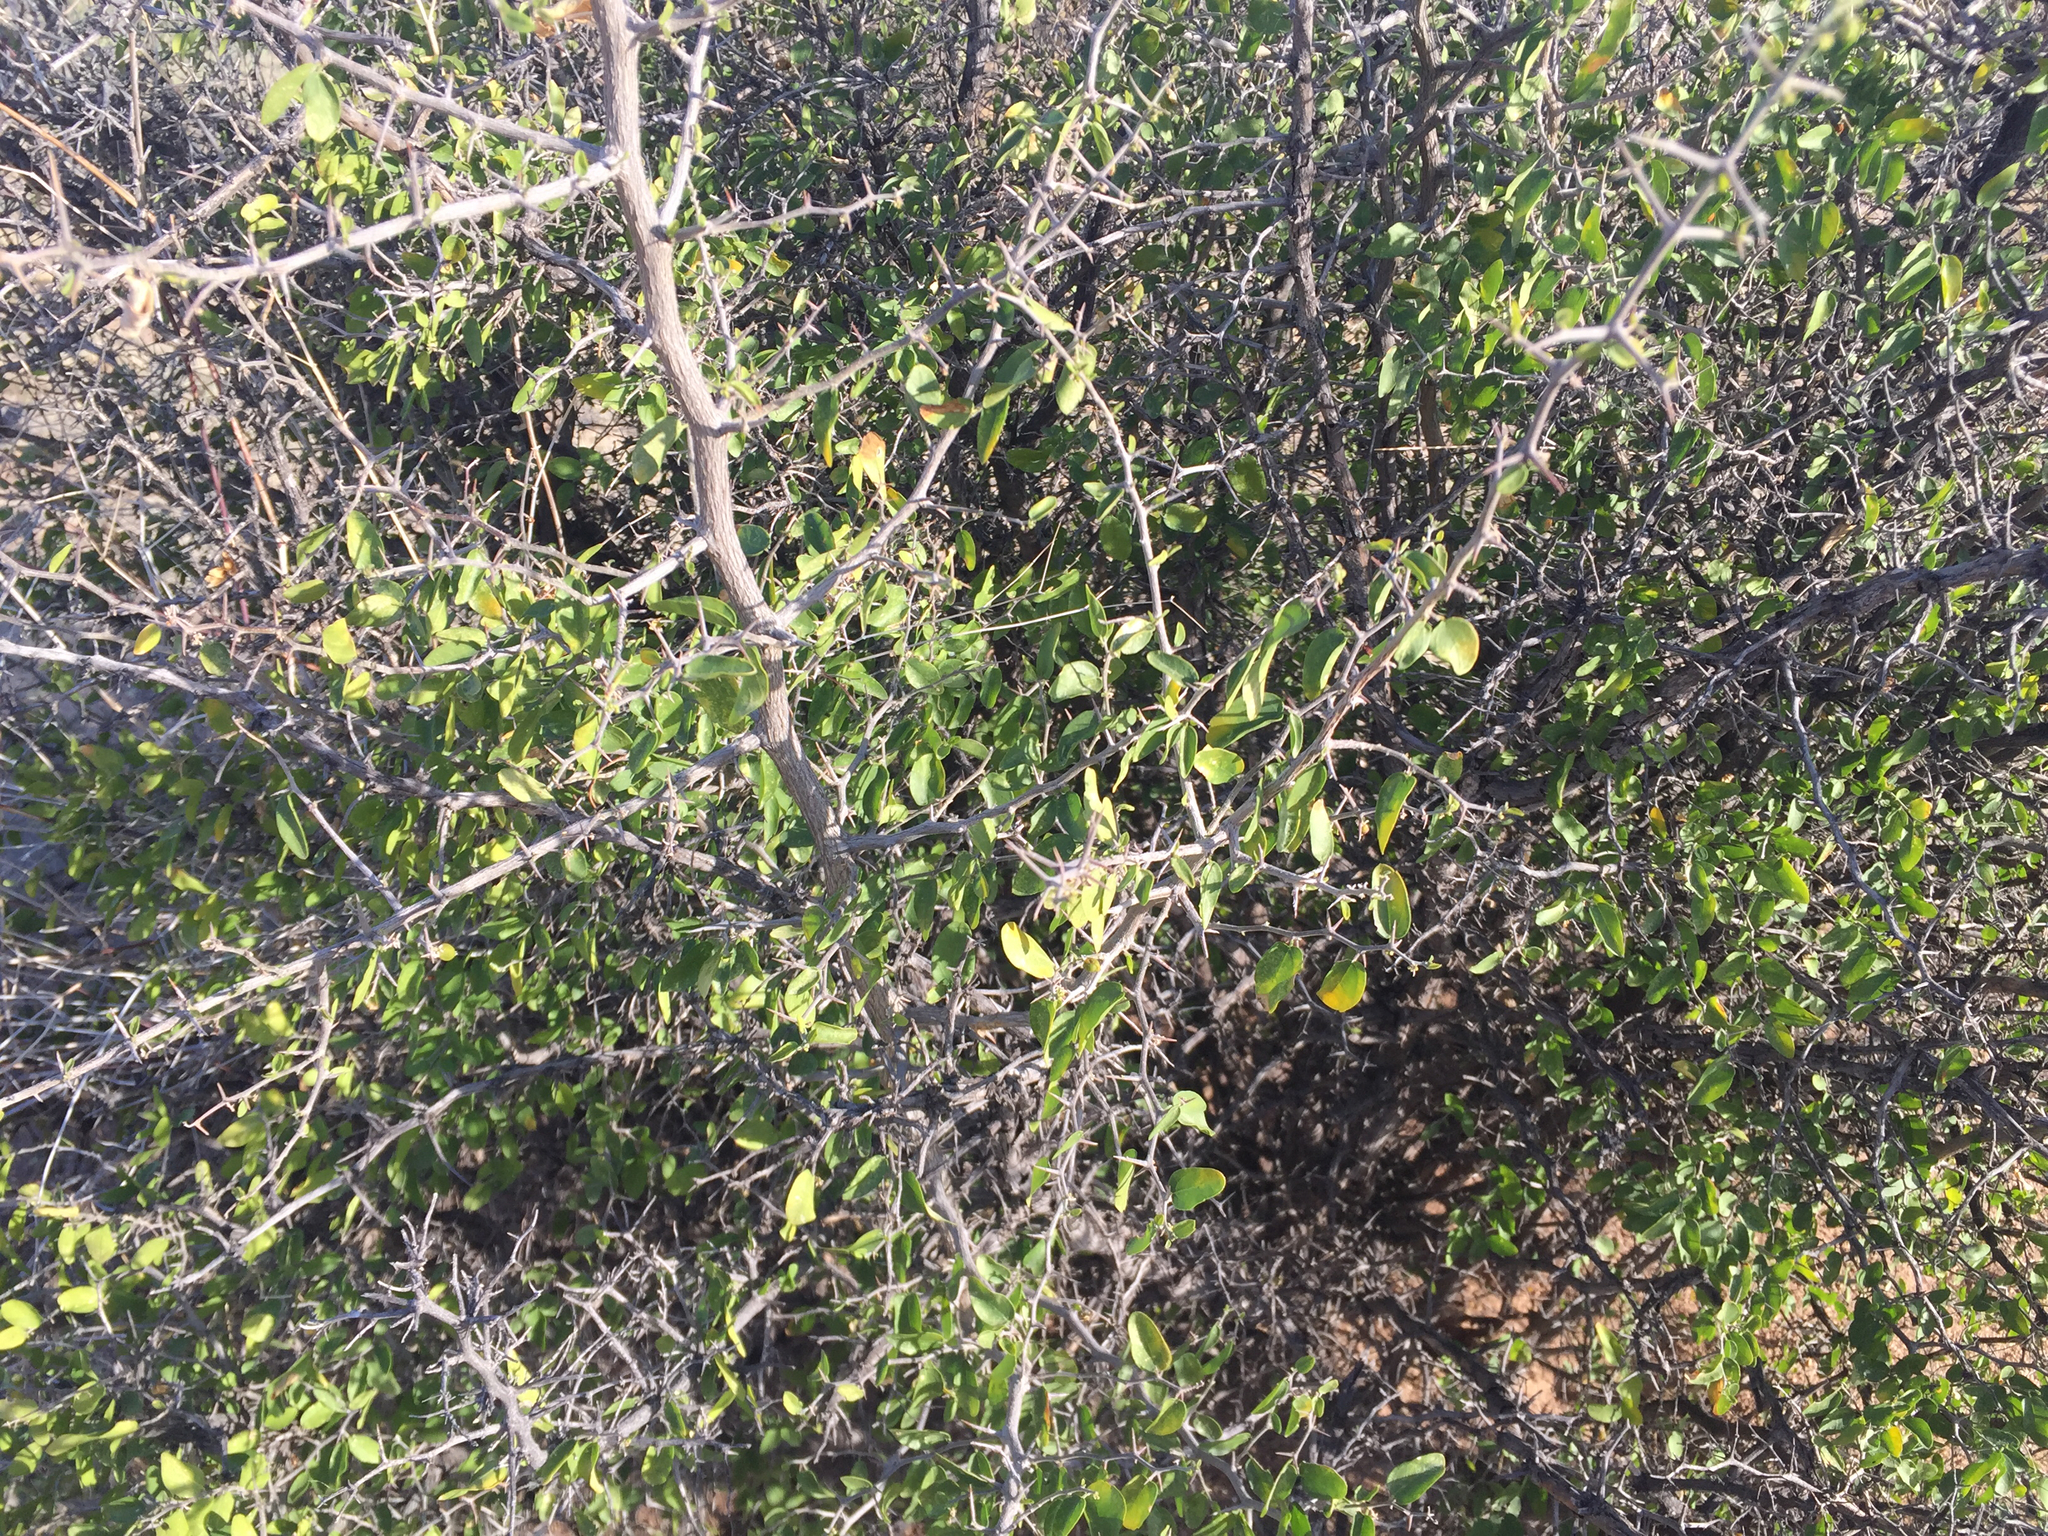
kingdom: Plantae
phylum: Tracheophyta
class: Magnoliopsida
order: Rosales
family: Cannabaceae
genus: Celtis
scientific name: Celtis pallida
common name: Desert hackberry
